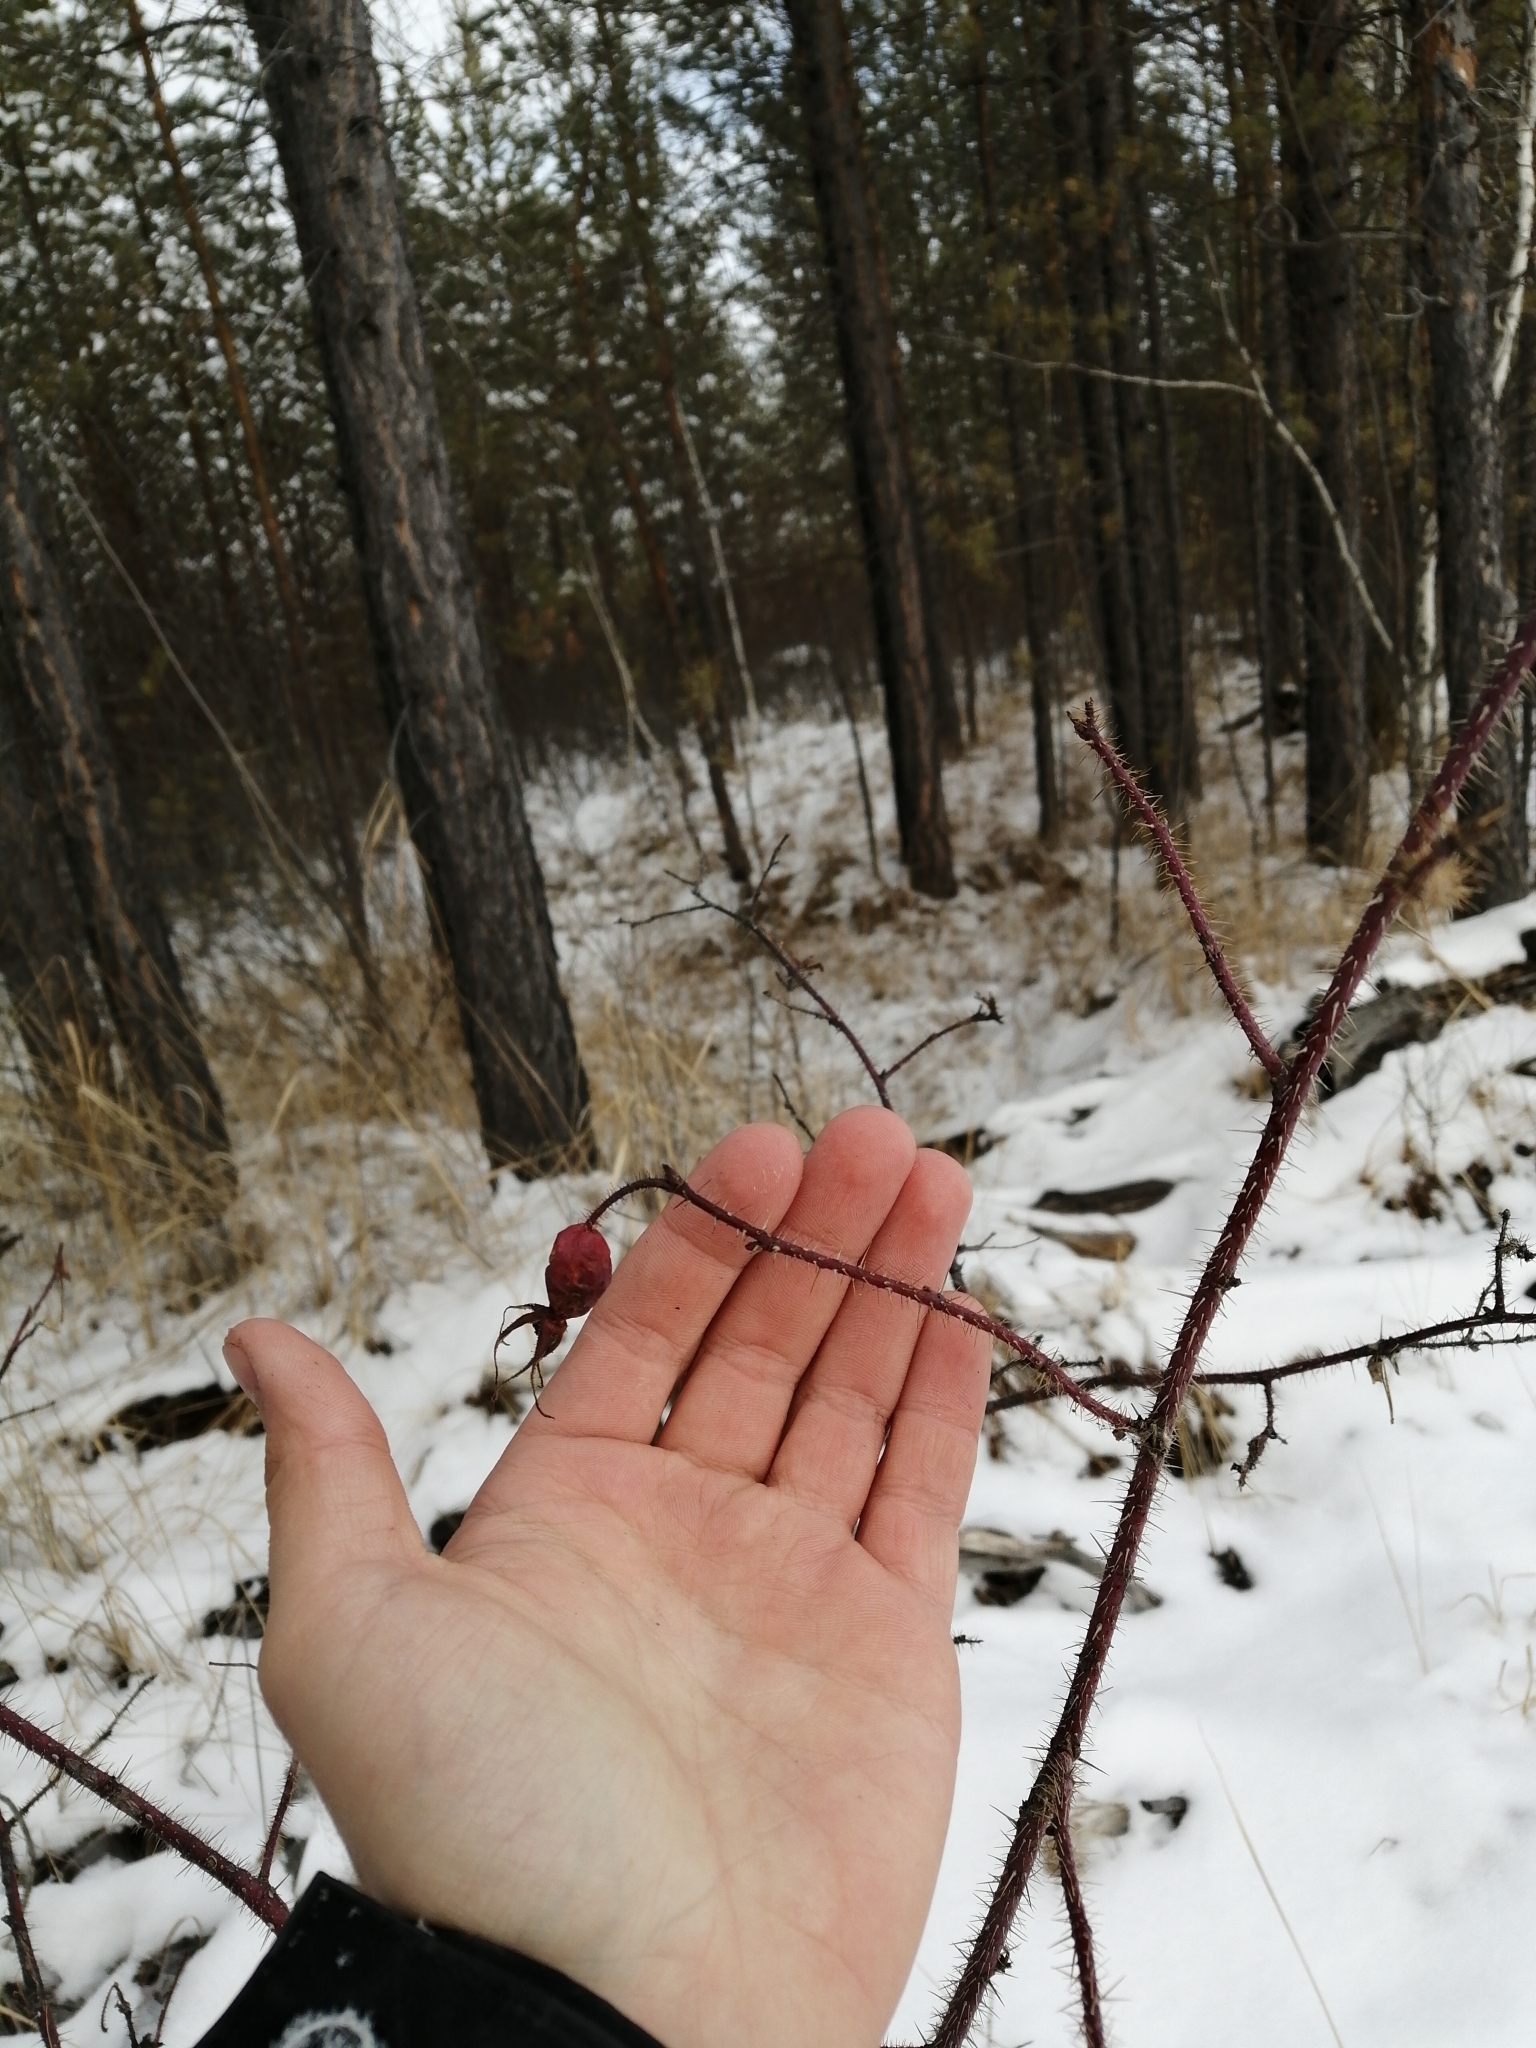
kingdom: Plantae
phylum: Tracheophyta
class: Magnoliopsida
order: Rosales
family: Rosaceae
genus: Rosa
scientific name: Rosa acicularis
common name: Prickly rose
